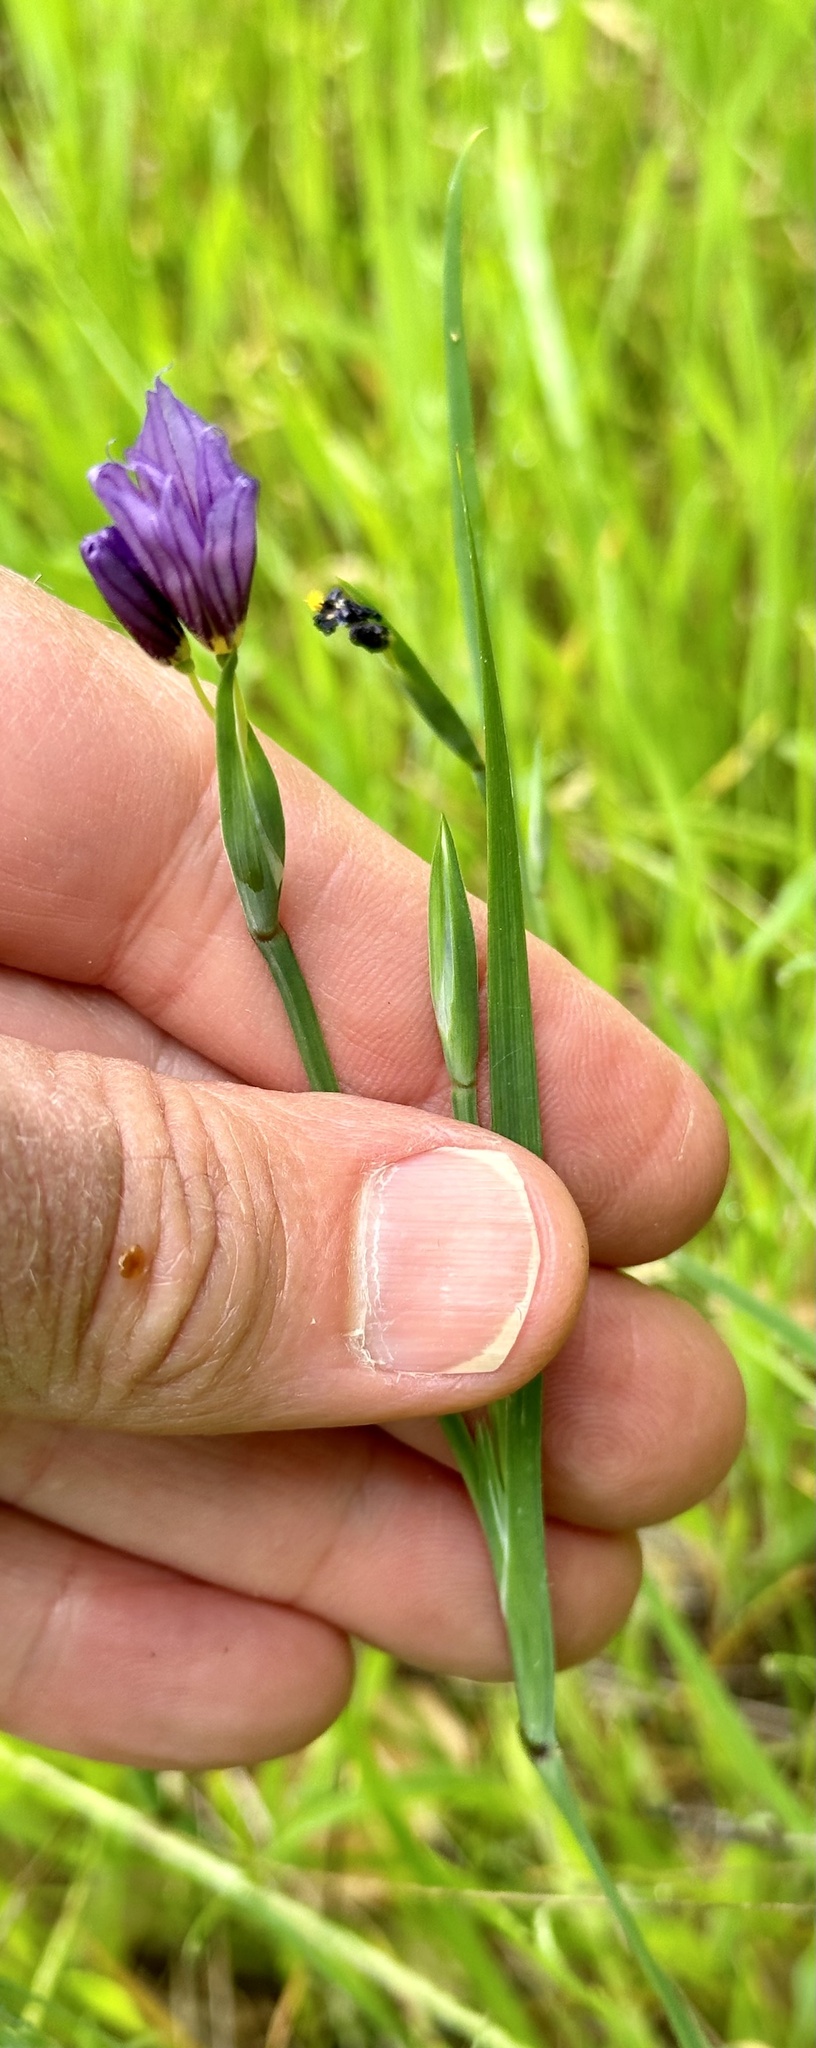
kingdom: Plantae
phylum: Tracheophyta
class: Liliopsida
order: Asparagales
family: Iridaceae
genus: Sisyrinchium
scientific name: Sisyrinchium bellum
